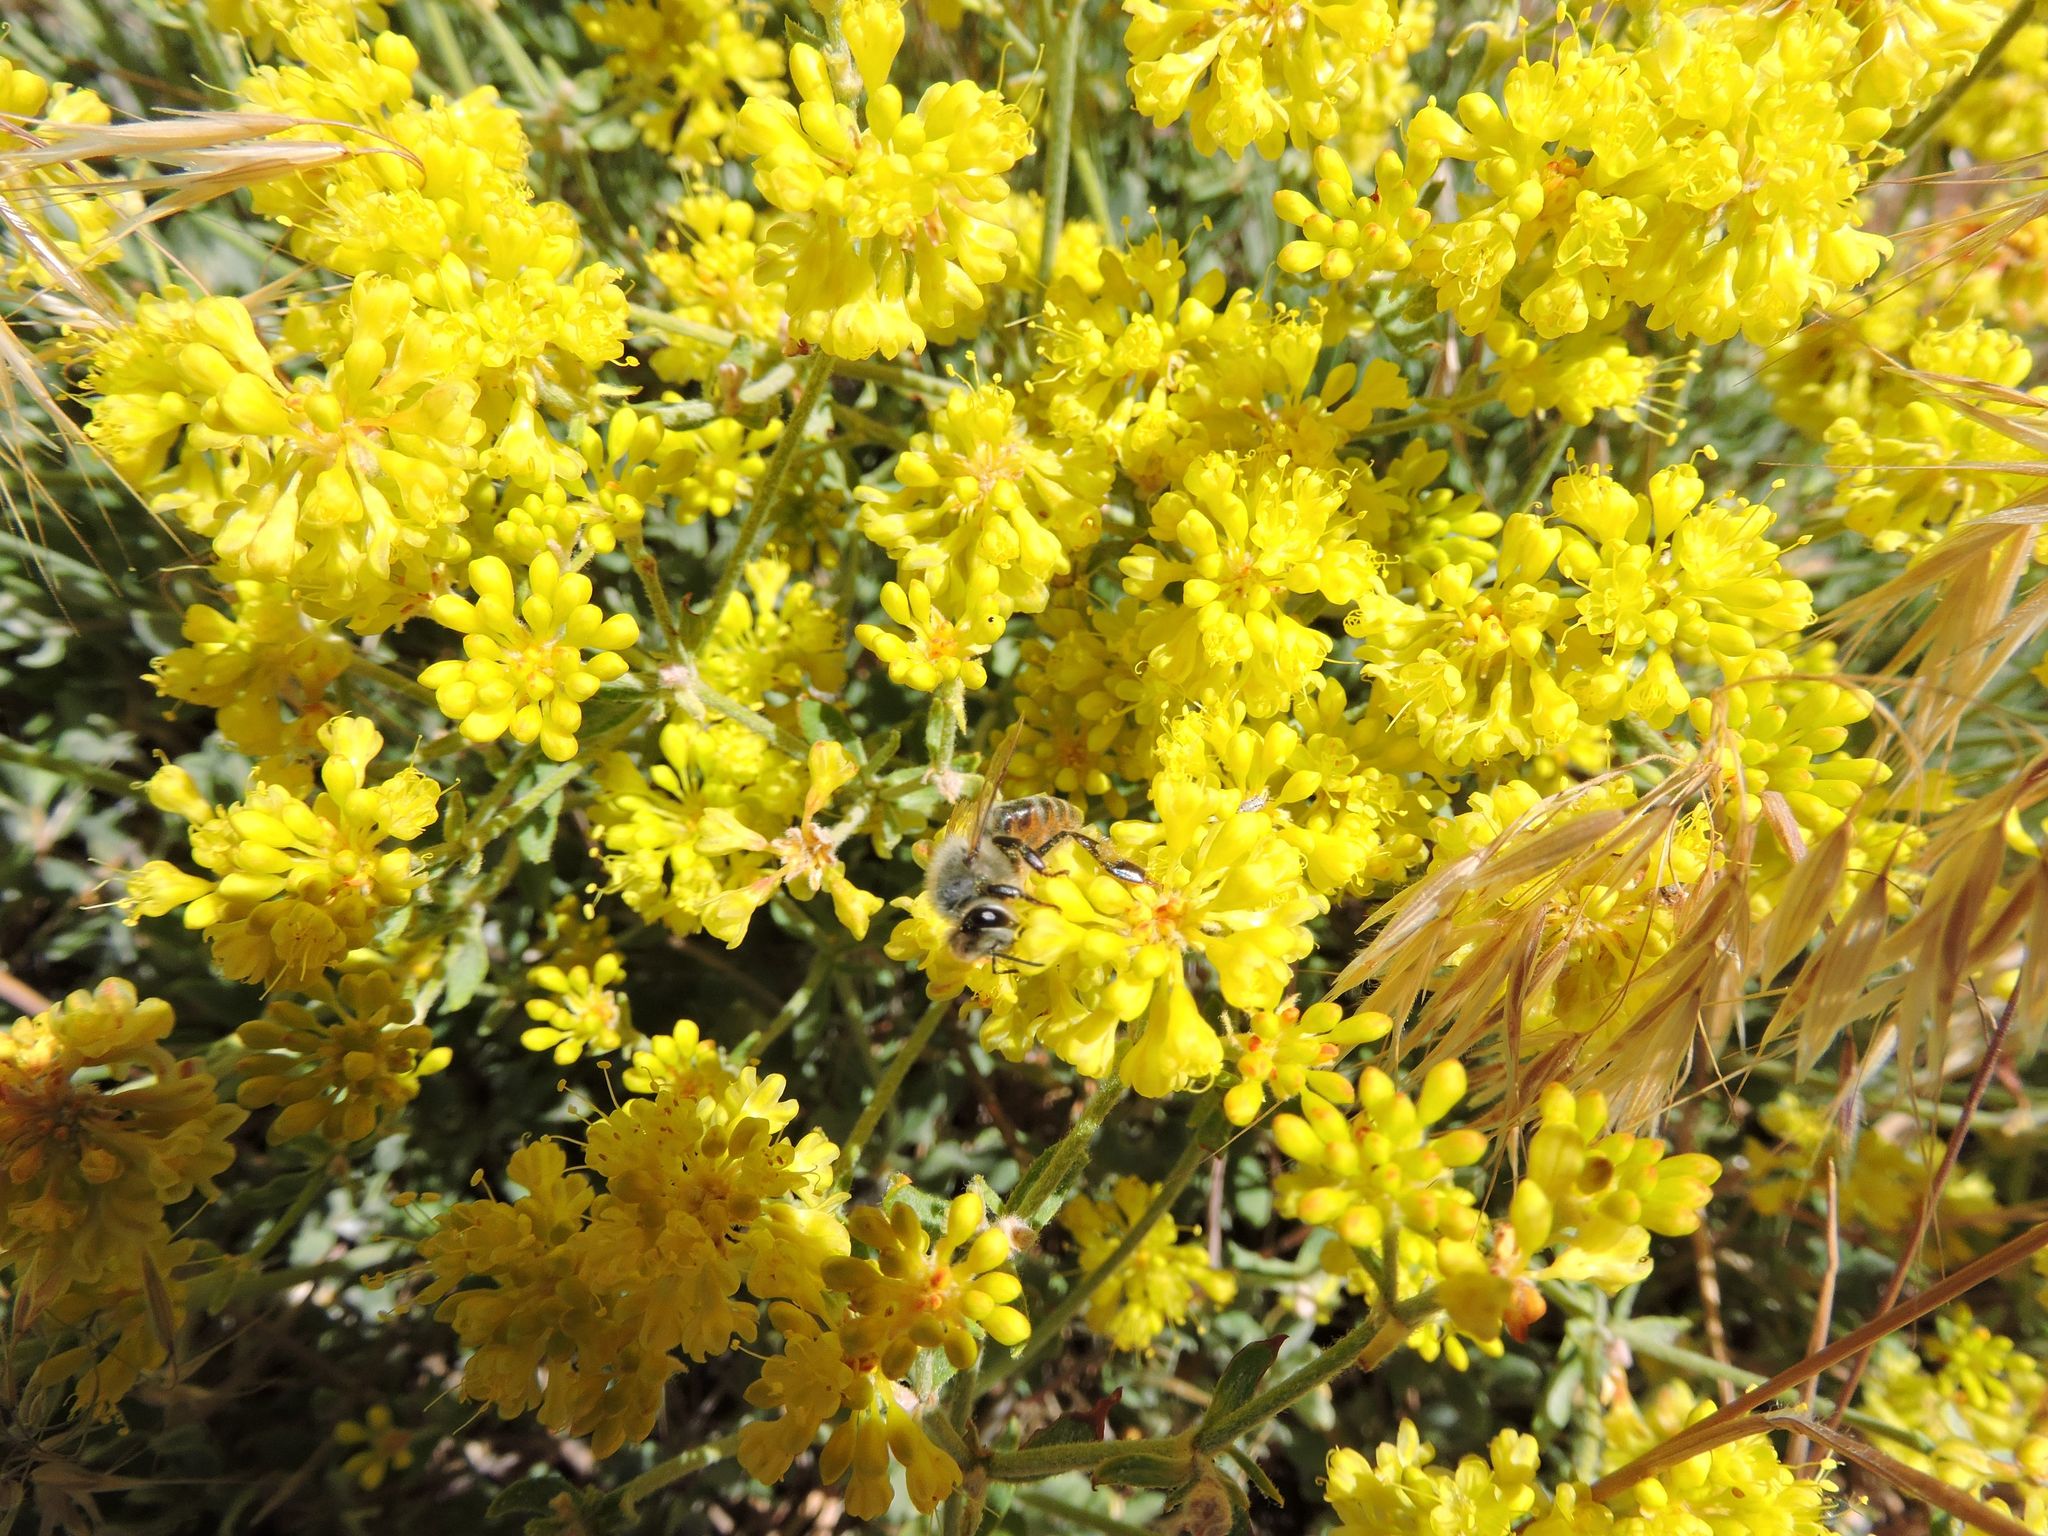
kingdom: Plantae
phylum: Tracheophyta
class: Magnoliopsida
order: Caryophyllales
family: Polygonaceae
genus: Eriogonum
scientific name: Eriogonum umbellatum
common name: Sulfur-buckwheat
